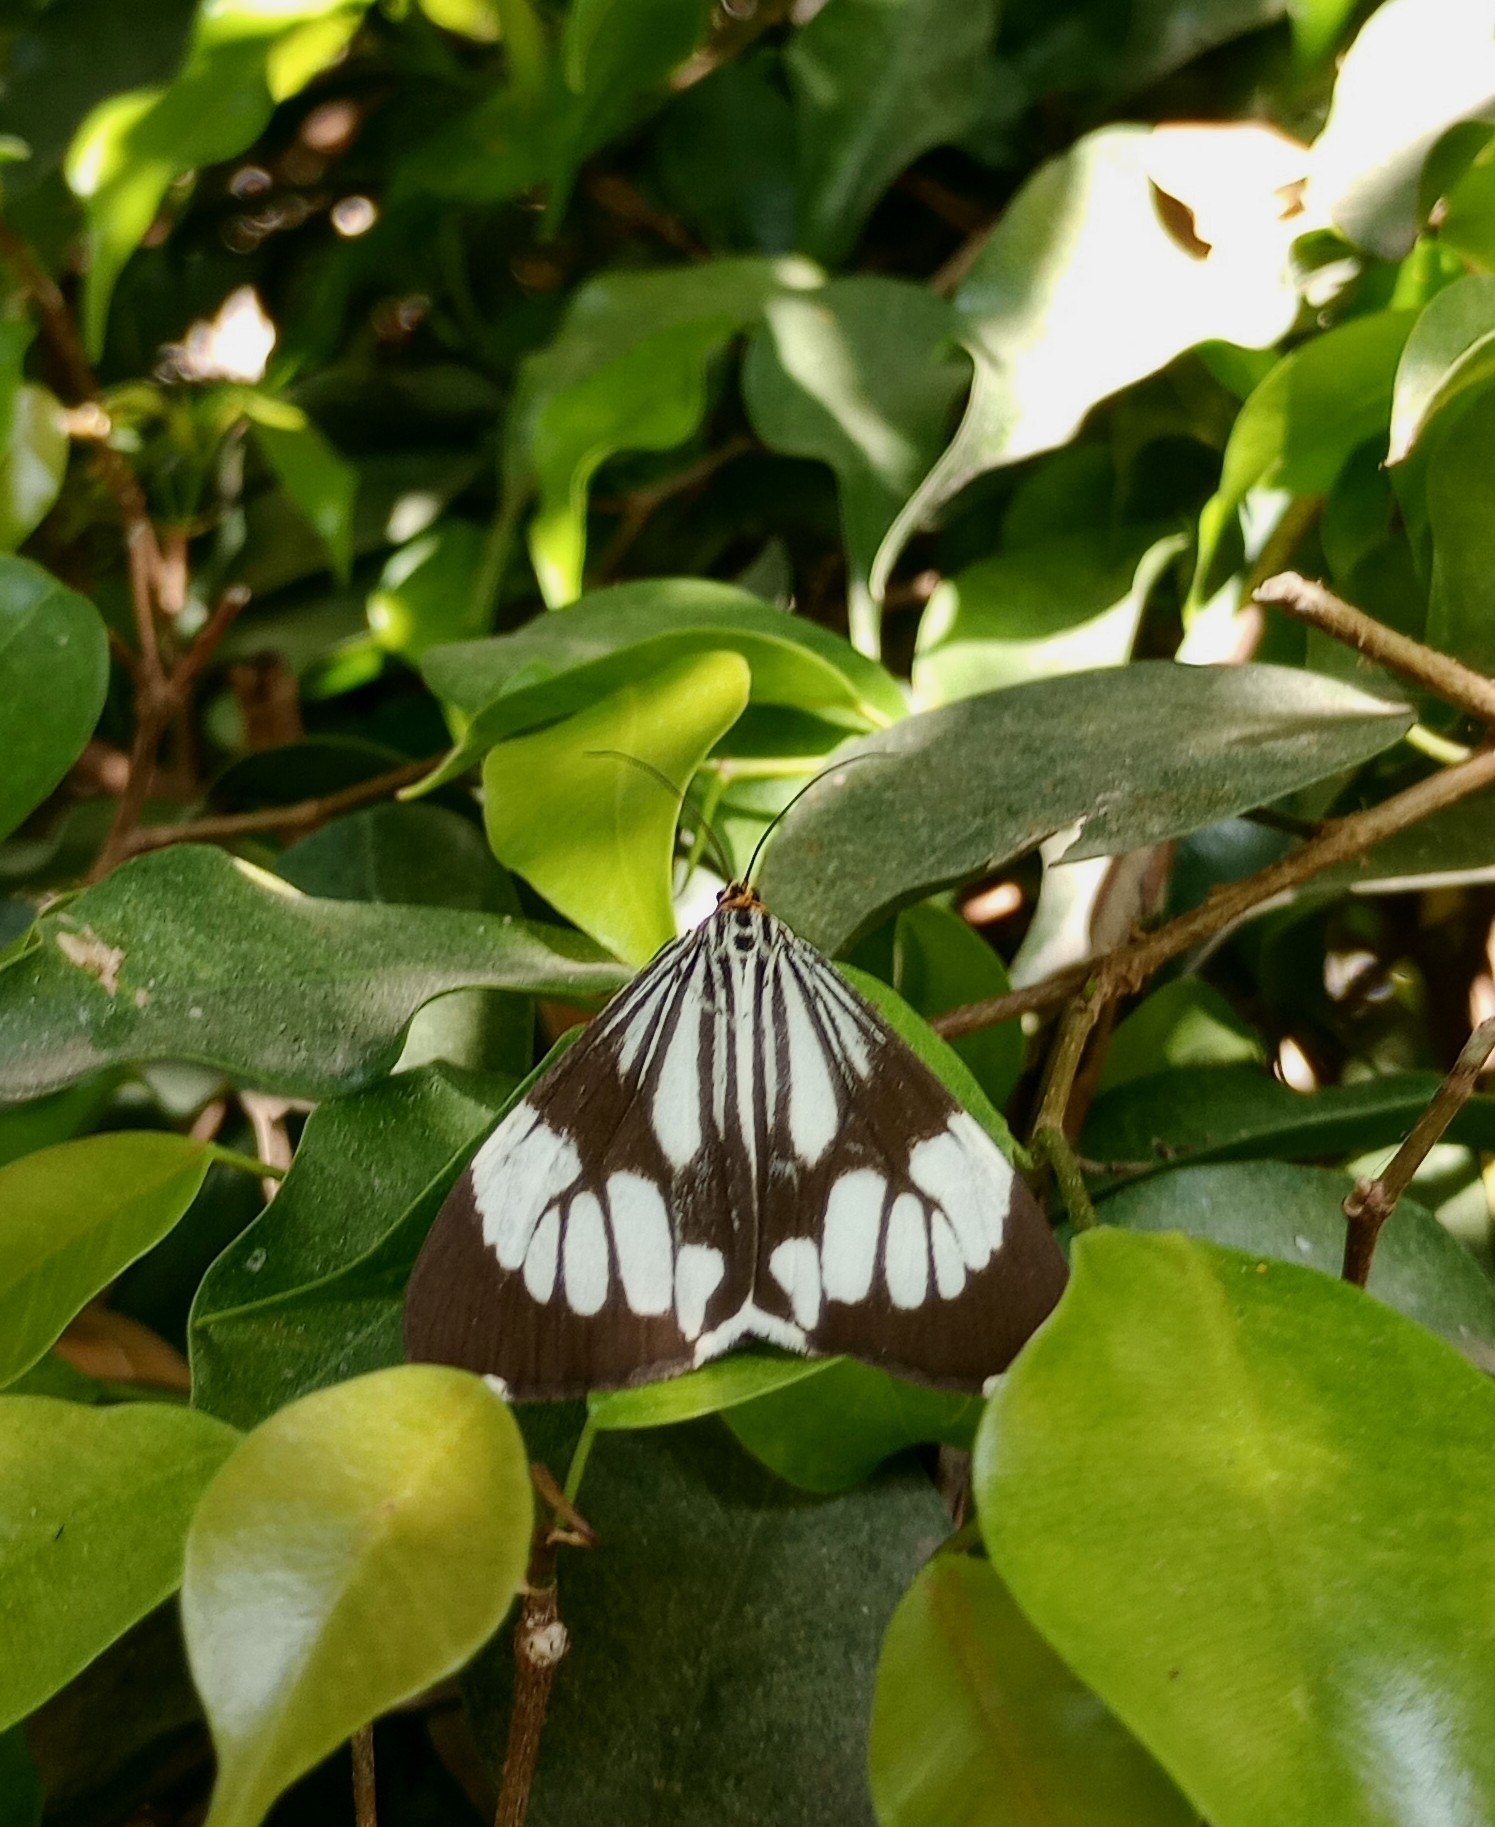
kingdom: Animalia
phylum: Arthropoda
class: Insecta
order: Lepidoptera
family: Erebidae
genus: Nyctemera
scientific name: Nyctemera coleta
